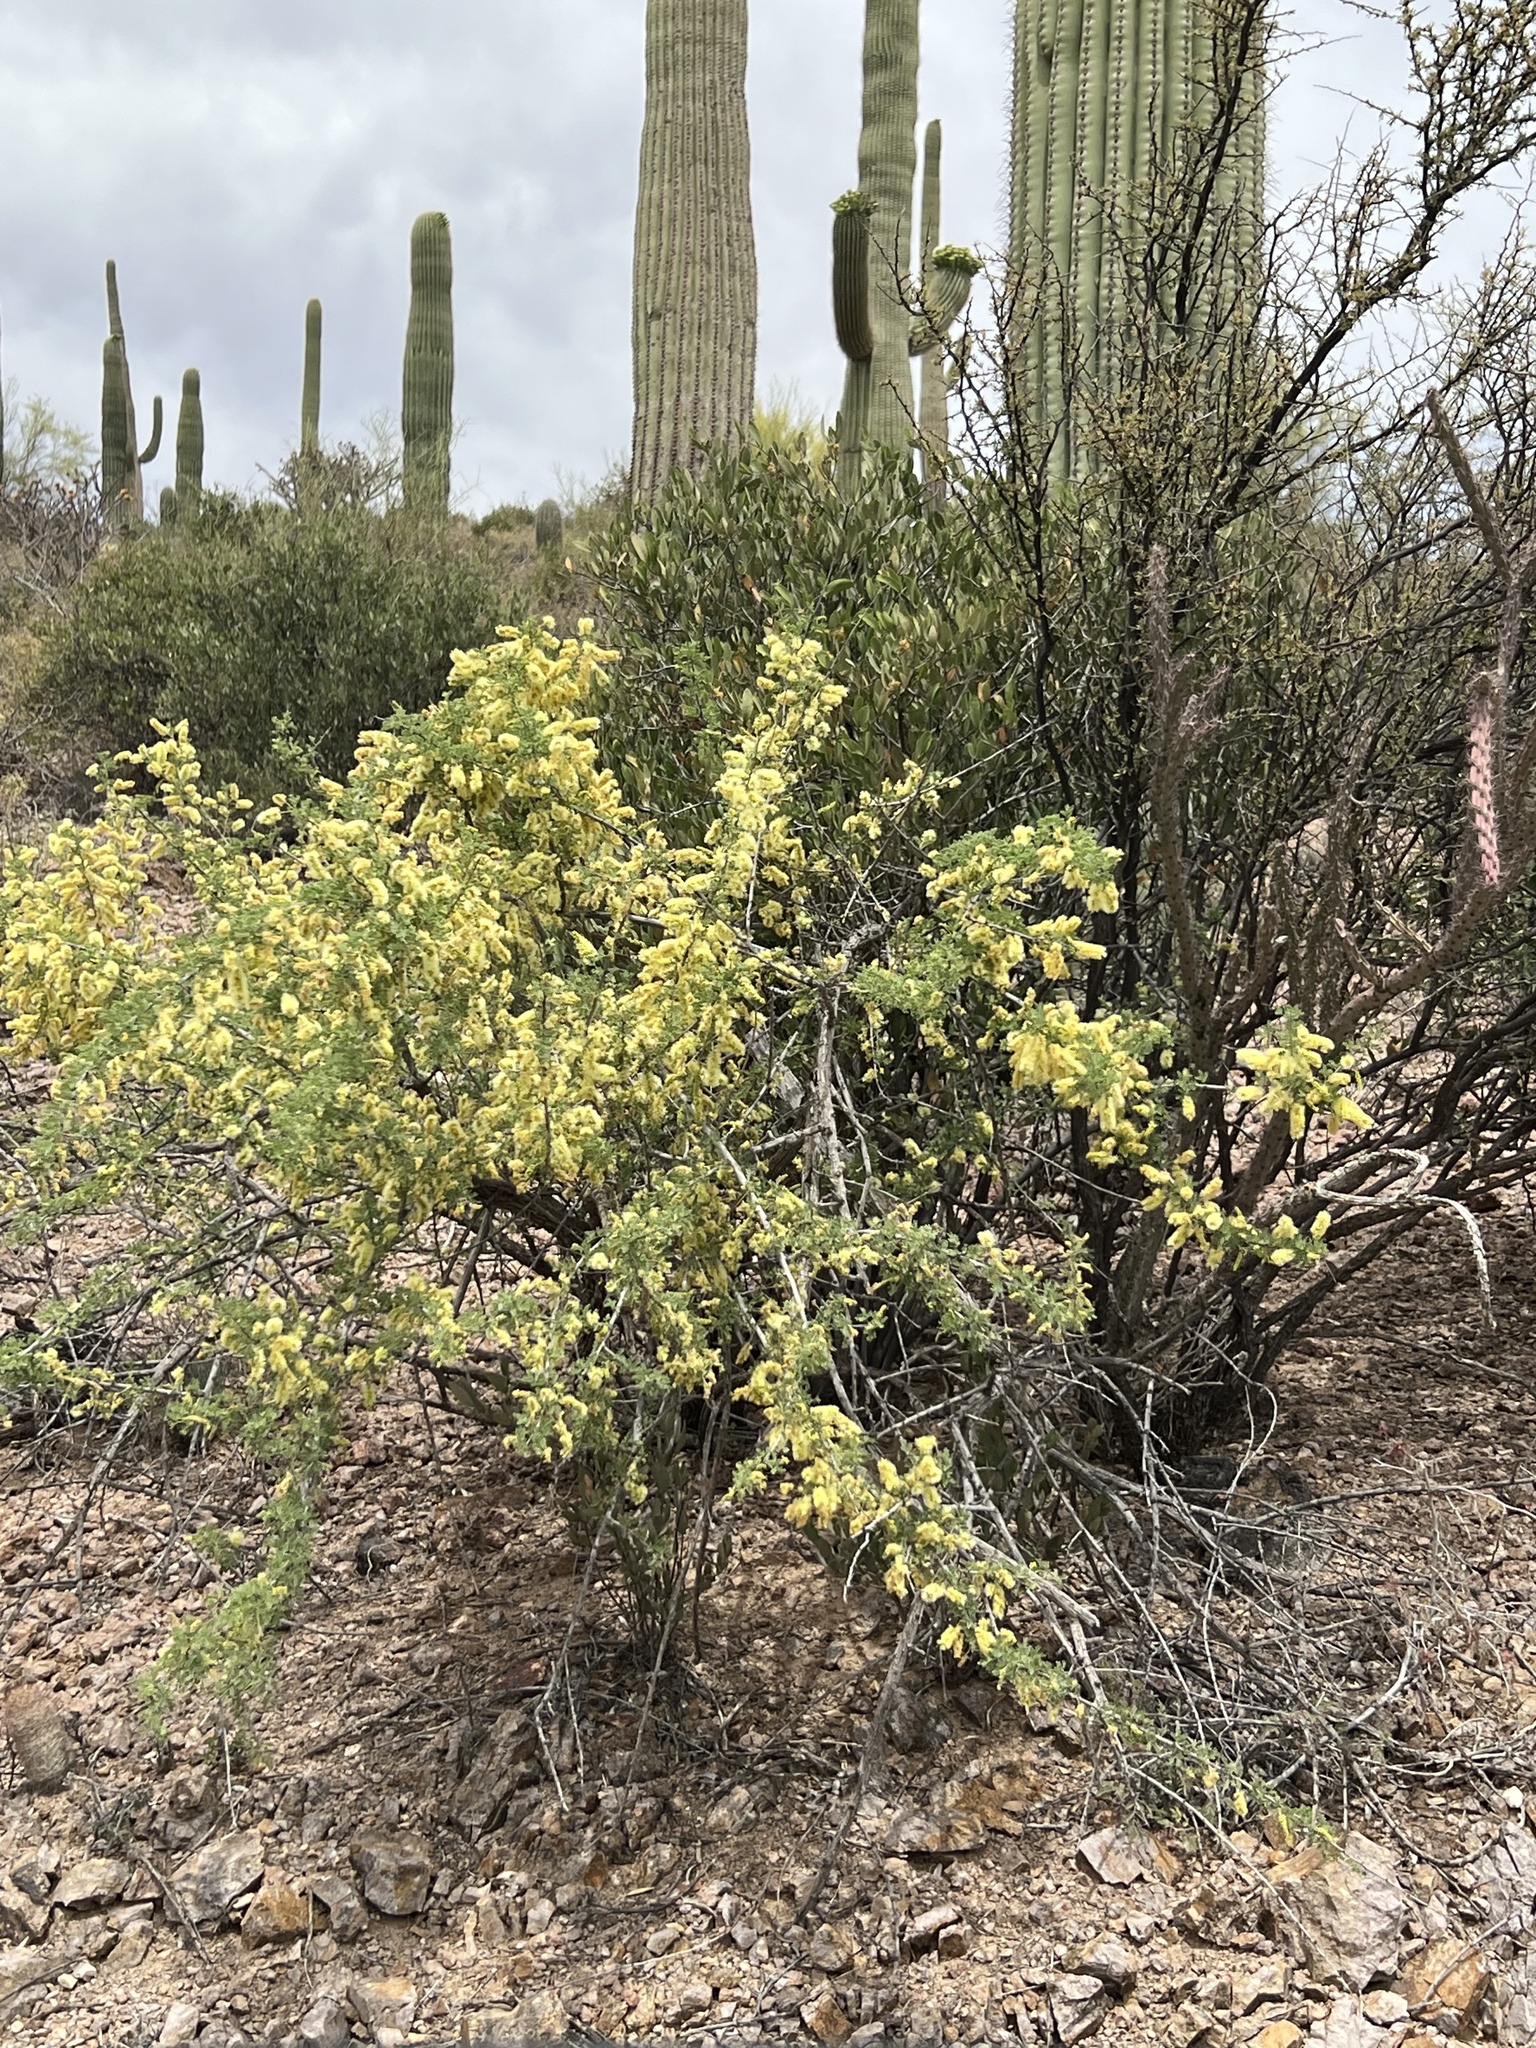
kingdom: Plantae
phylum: Tracheophyta
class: Magnoliopsida
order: Fabales
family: Fabaceae
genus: Senegalia
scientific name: Senegalia greggii
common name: Texas-mimosa
